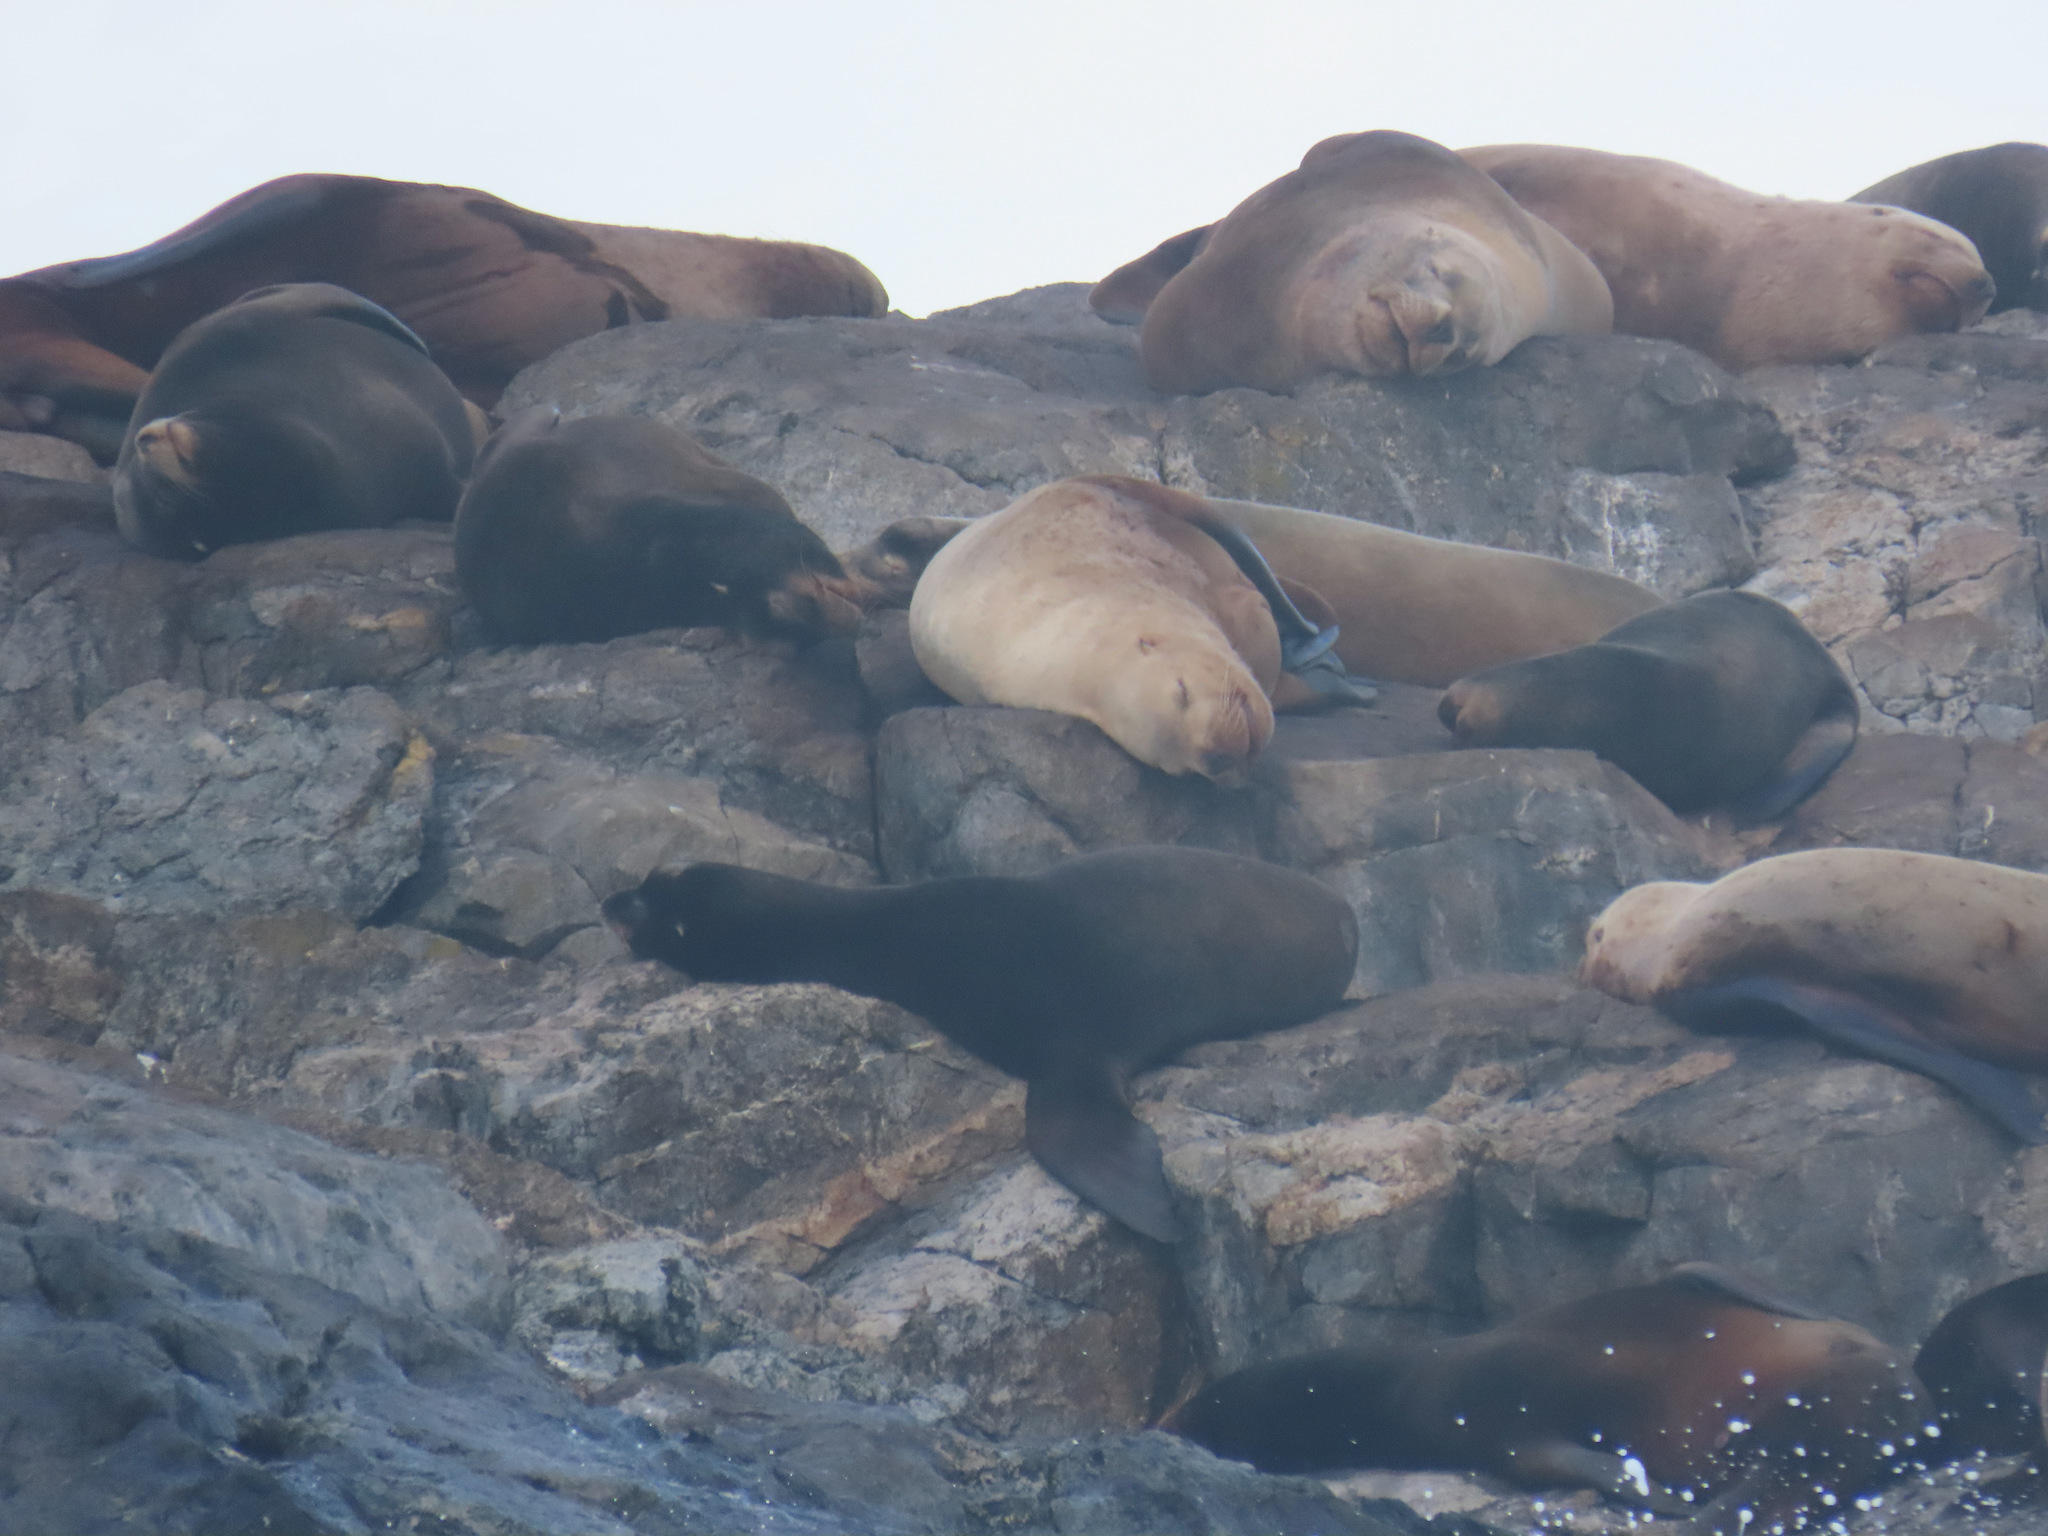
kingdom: Animalia
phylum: Chordata
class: Mammalia
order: Carnivora
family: Otariidae
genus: Eumetopias
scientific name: Eumetopias jubatus
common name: Steller sea lion
